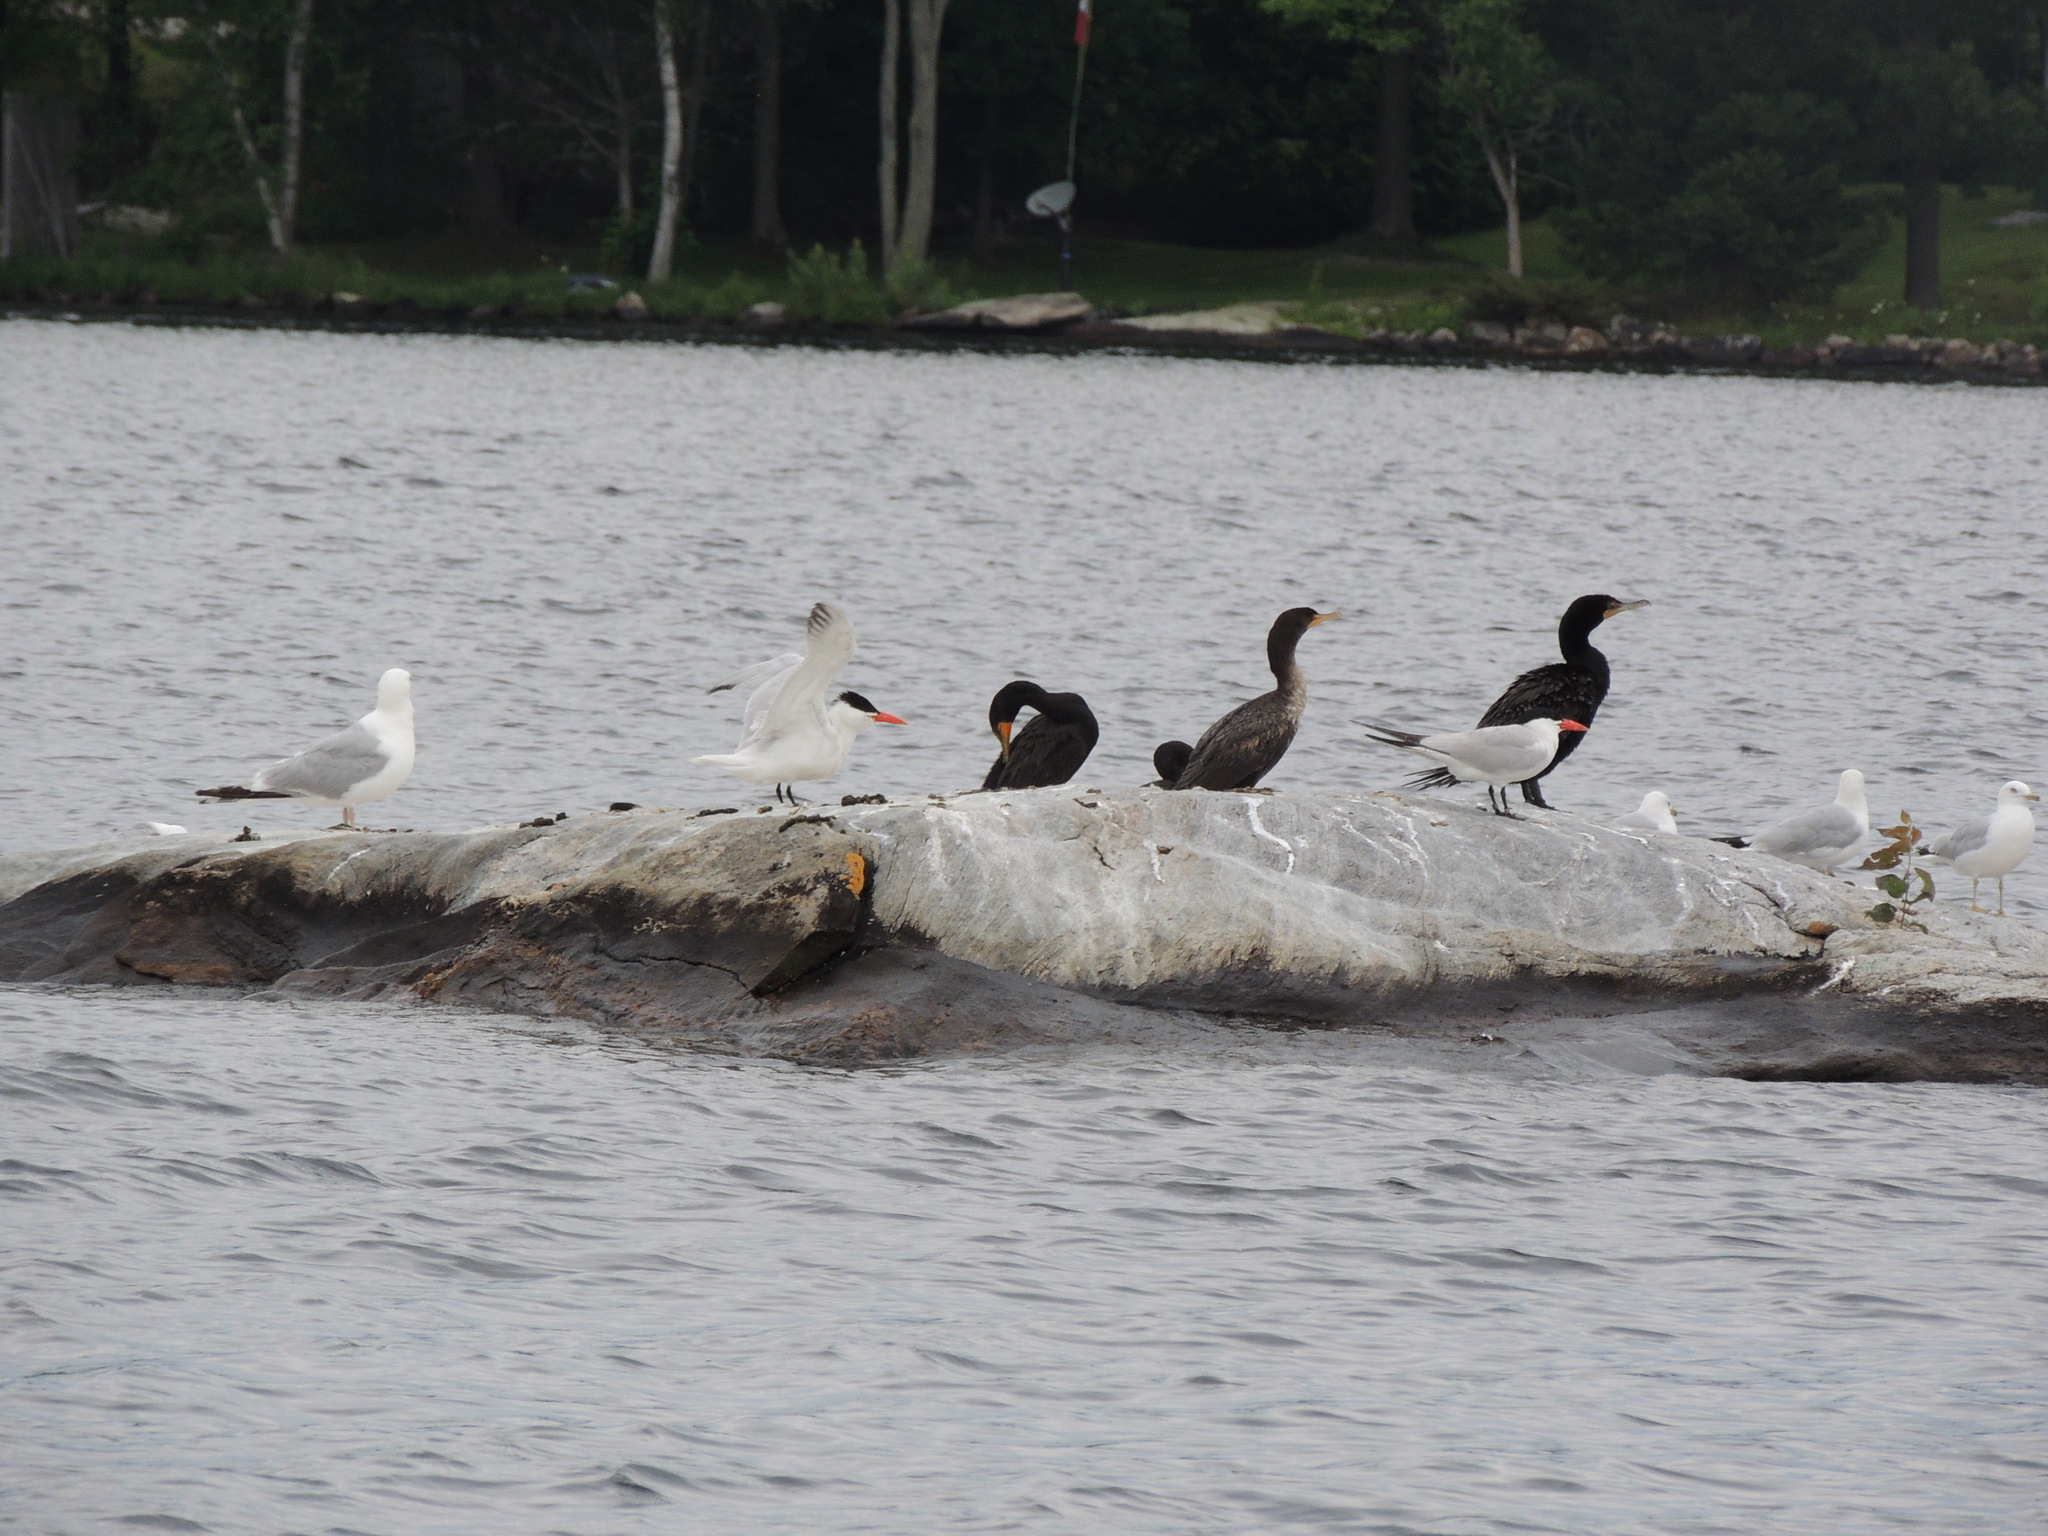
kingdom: Animalia
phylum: Chordata
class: Aves
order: Suliformes
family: Phalacrocoracidae
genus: Phalacrocorax
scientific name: Phalacrocorax auritus
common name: Double-crested cormorant
